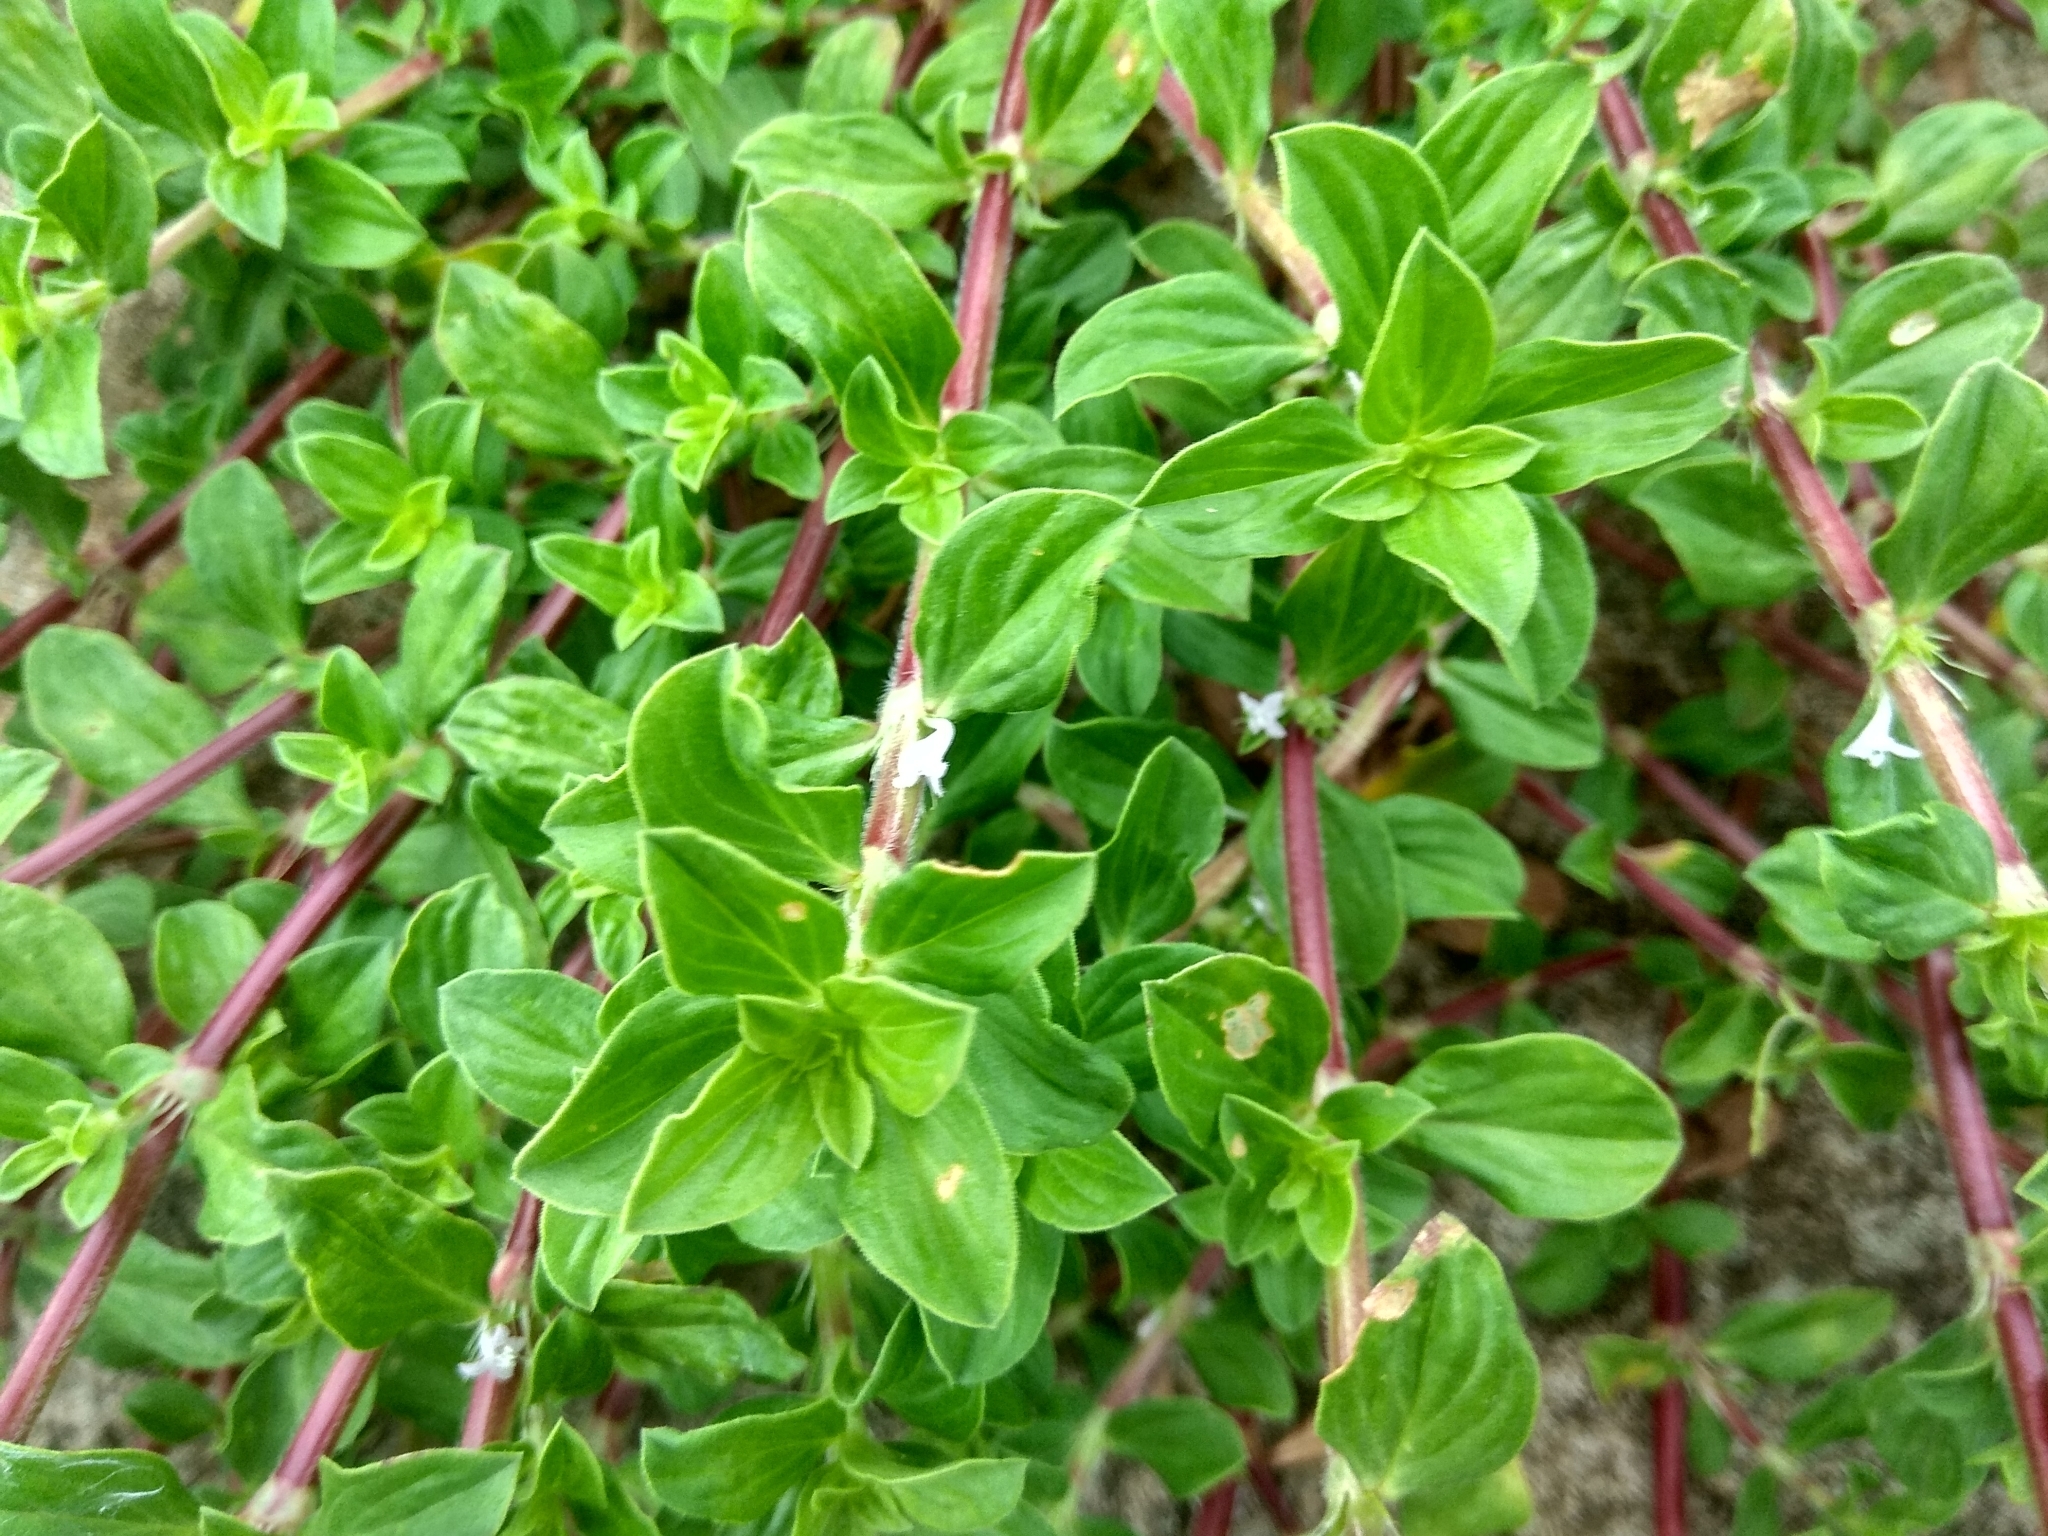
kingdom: Plantae
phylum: Tracheophyta
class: Magnoliopsida
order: Gentianales
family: Rubiaceae
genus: Spermacoce
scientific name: Spermacoce articularis
